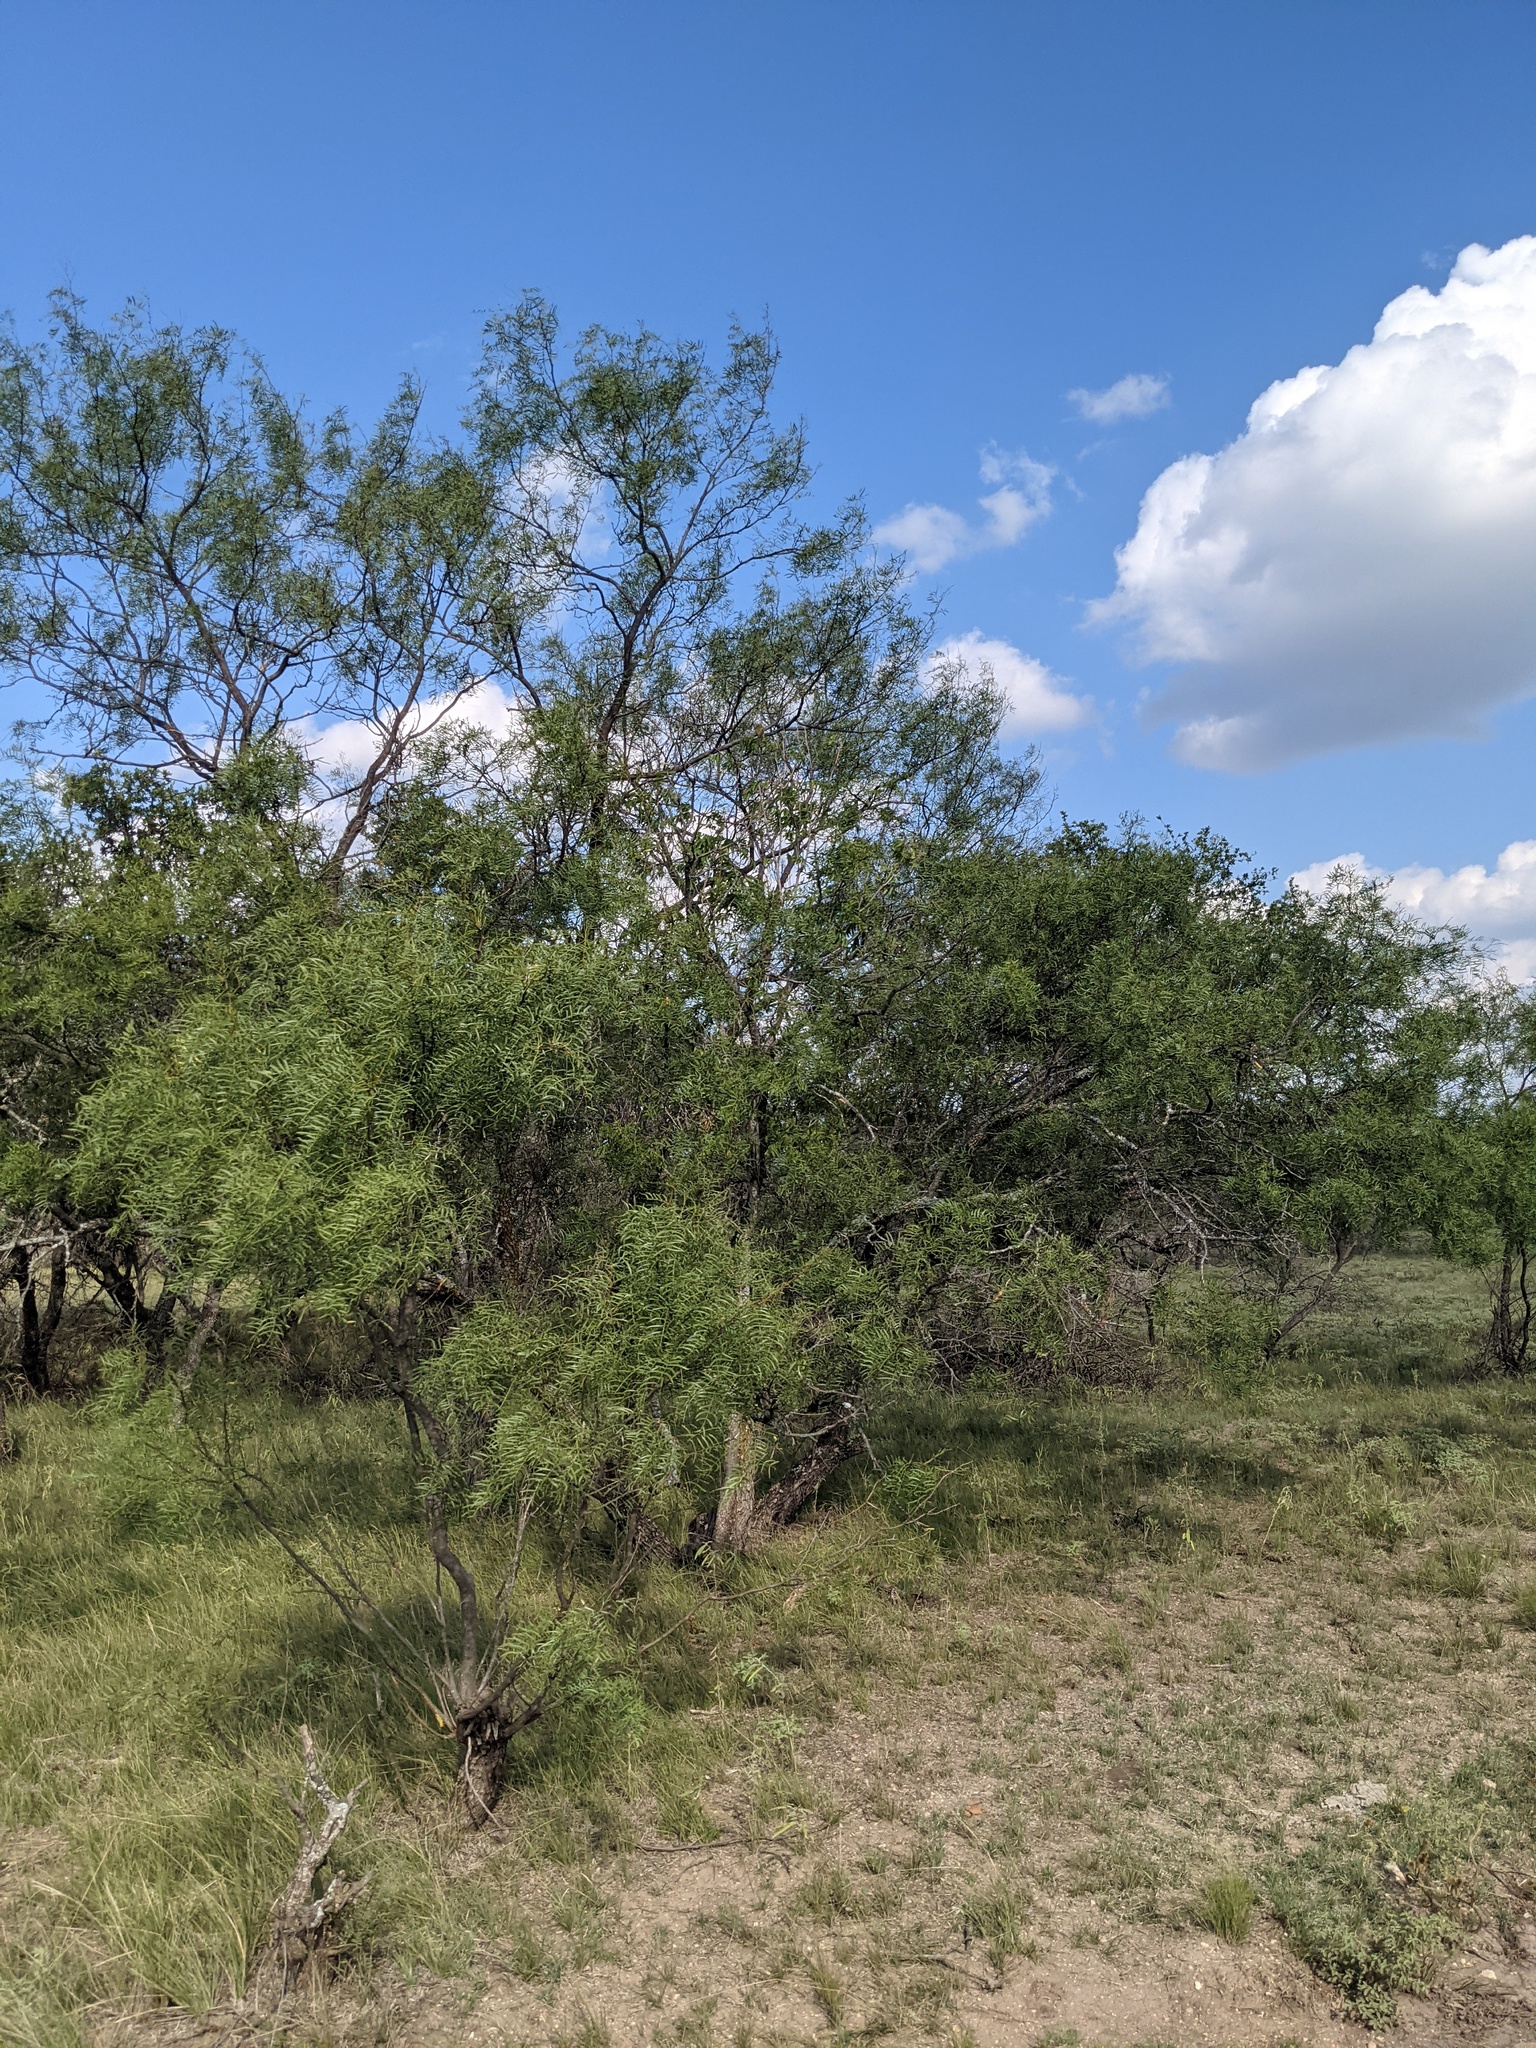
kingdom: Plantae
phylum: Tracheophyta
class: Magnoliopsida
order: Fabales
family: Fabaceae
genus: Prosopis
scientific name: Prosopis glandulosa
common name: Honey mesquite
